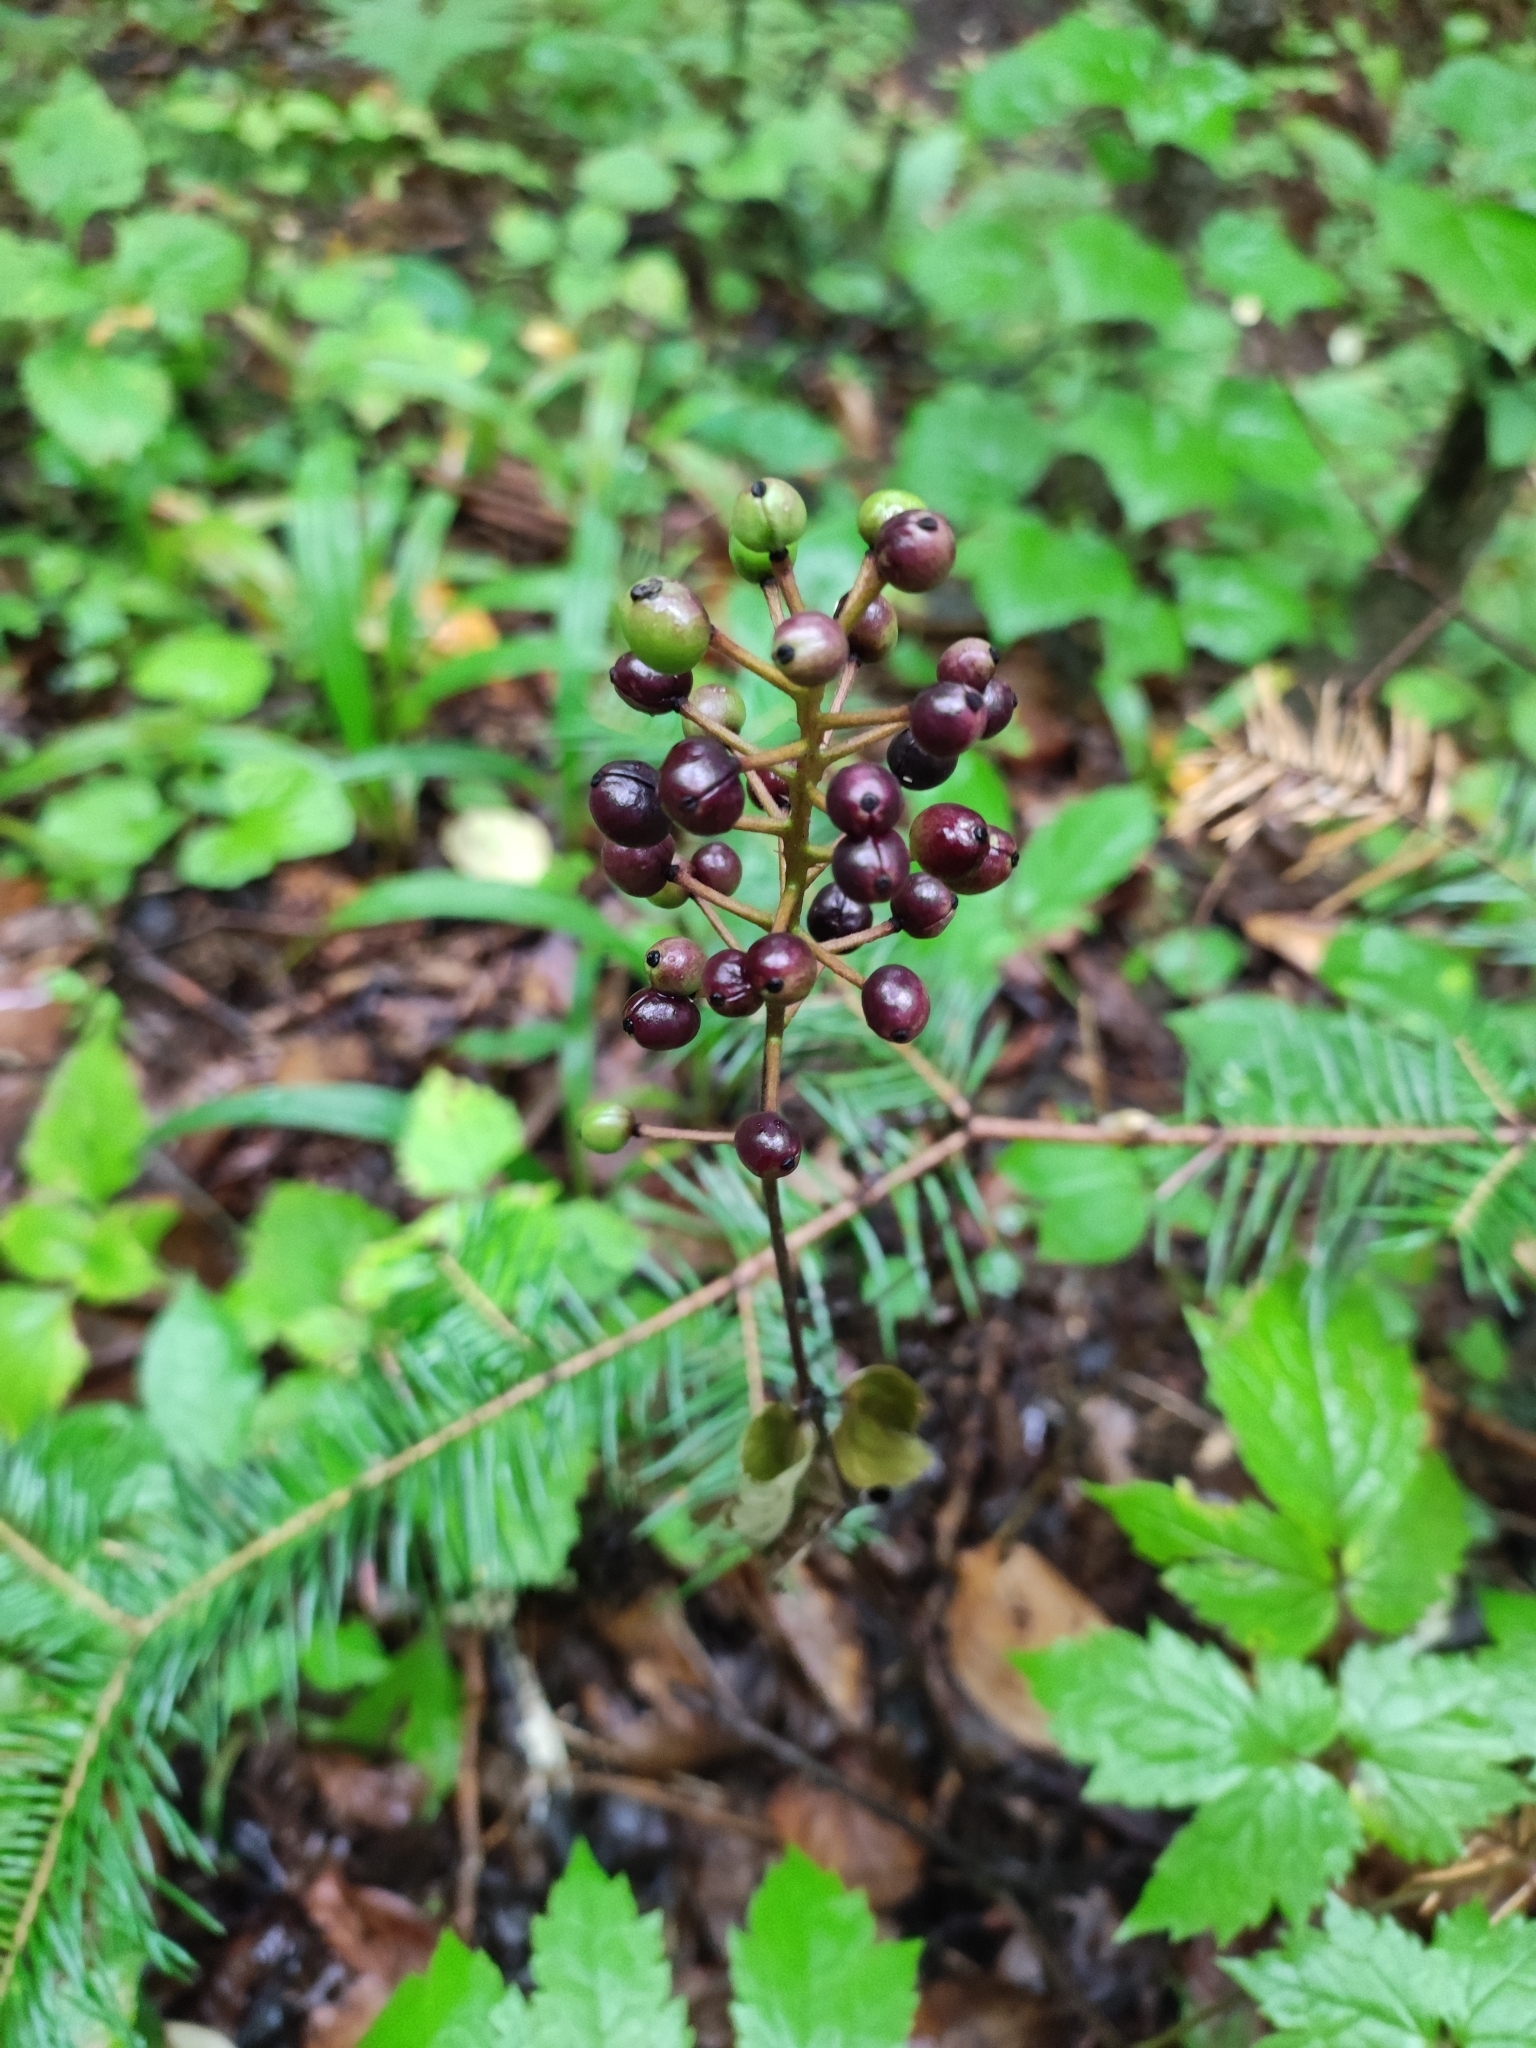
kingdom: Plantae
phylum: Tracheophyta
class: Magnoliopsida
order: Ranunculales
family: Ranunculaceae
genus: Actaea
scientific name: Actaea spicata
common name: Baneberry
